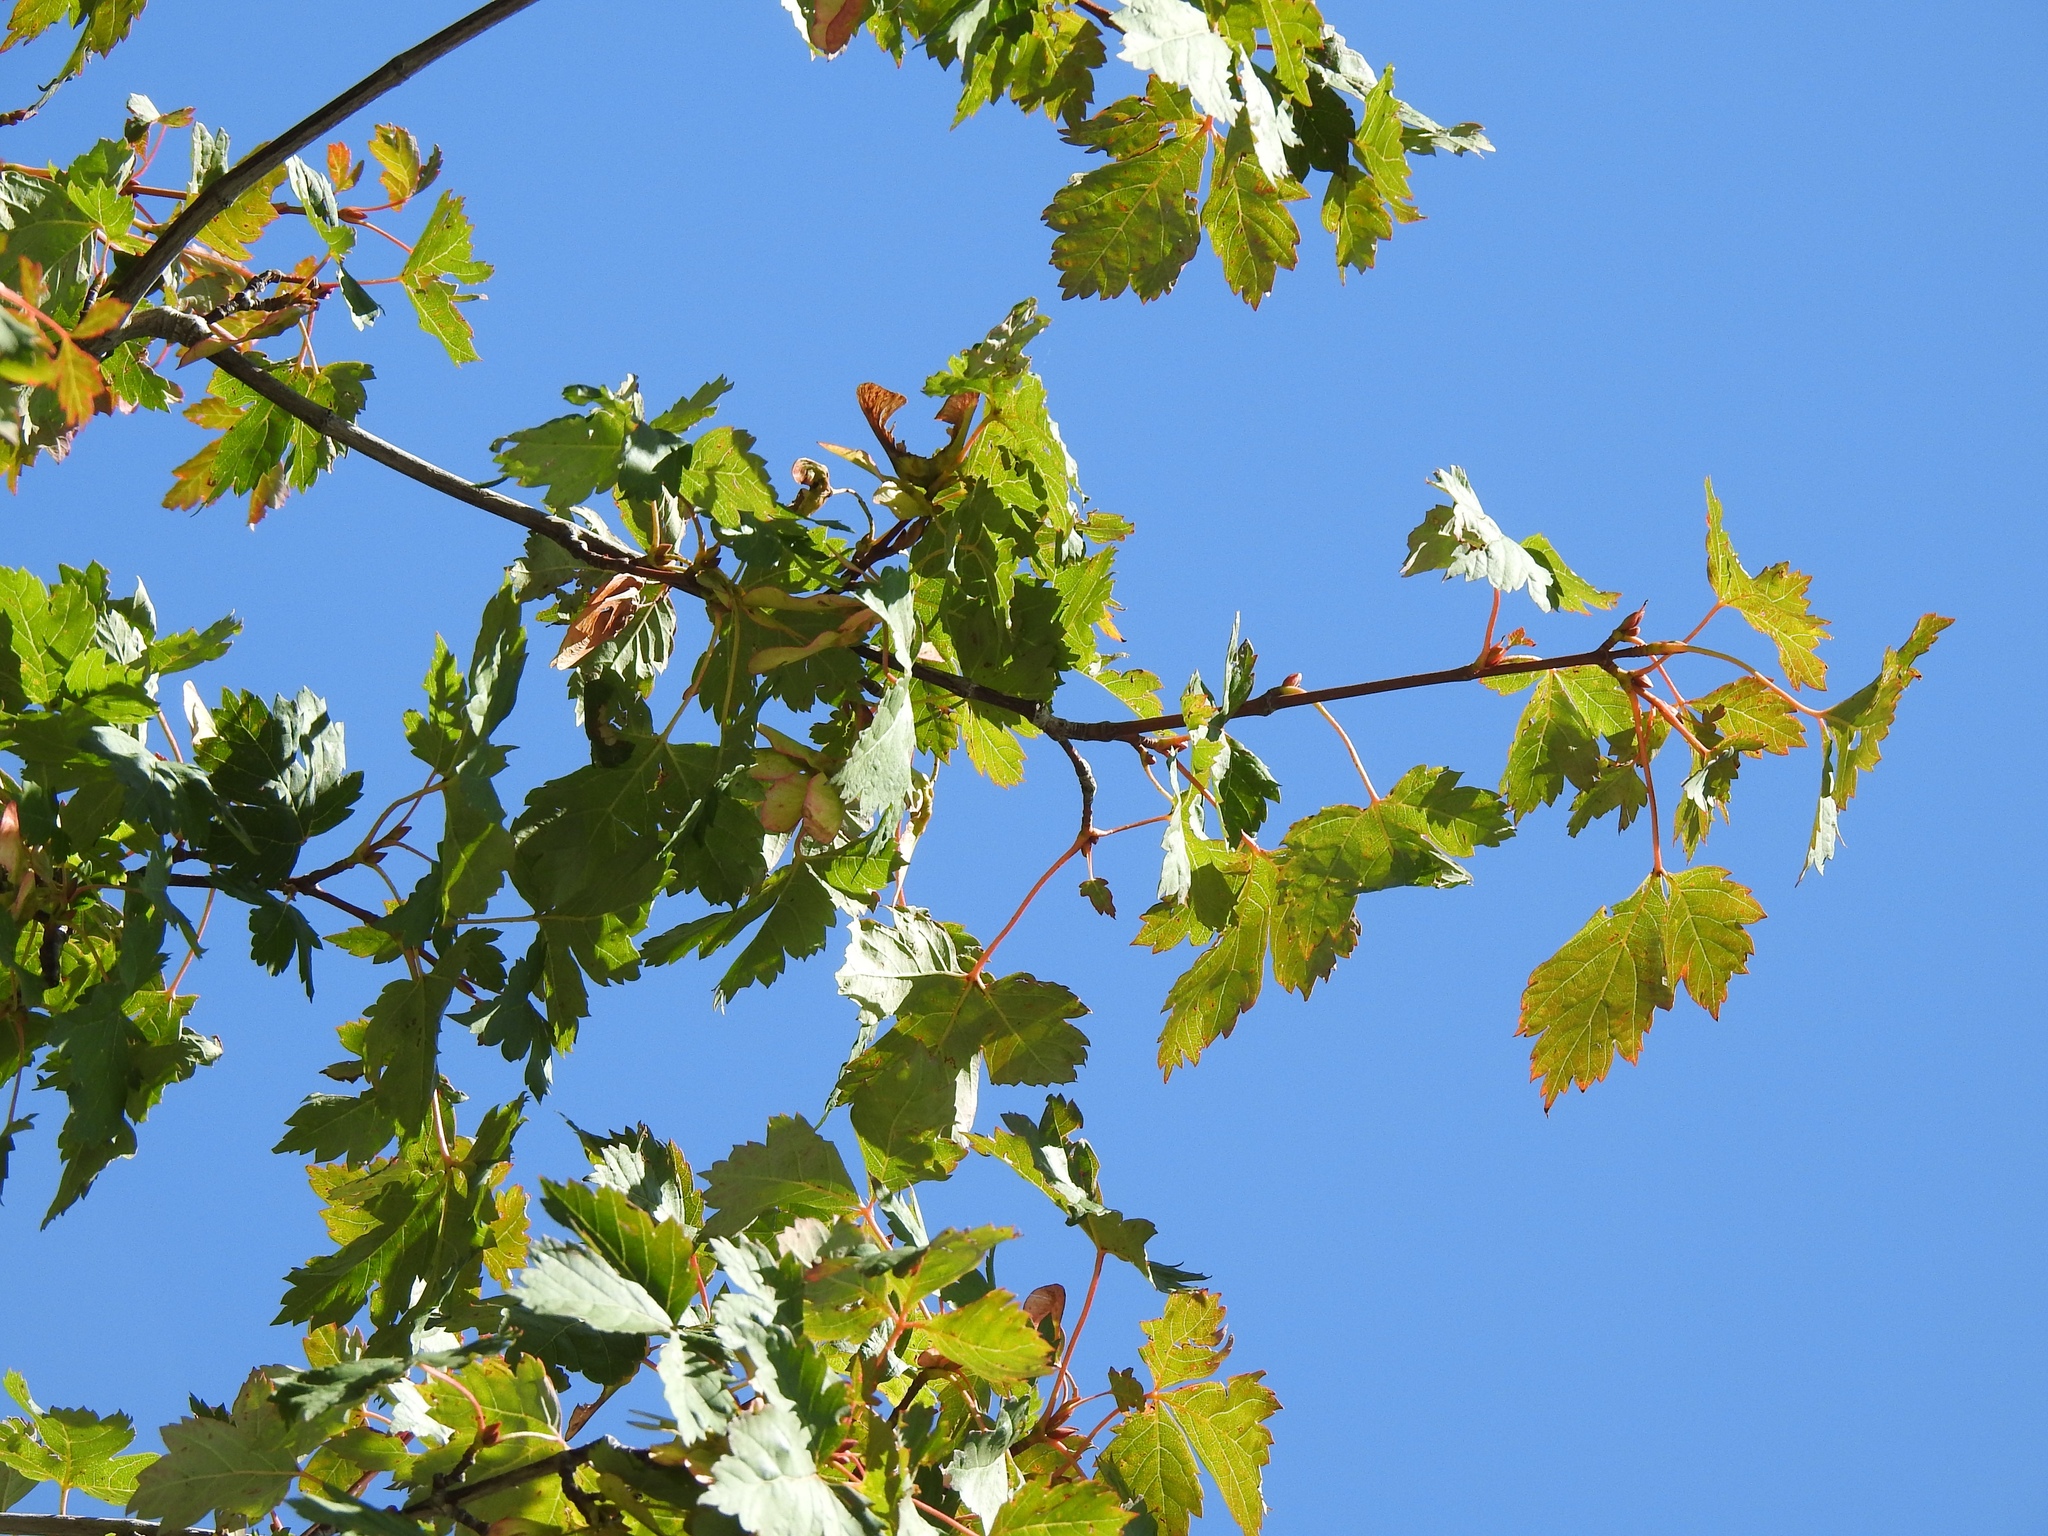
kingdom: Plantae
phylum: Tracheophyta
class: Magnoliopsida
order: Sapindales
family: Sapindaceae
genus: Acer
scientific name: Acer glabrum
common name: Rocky mountain maple
